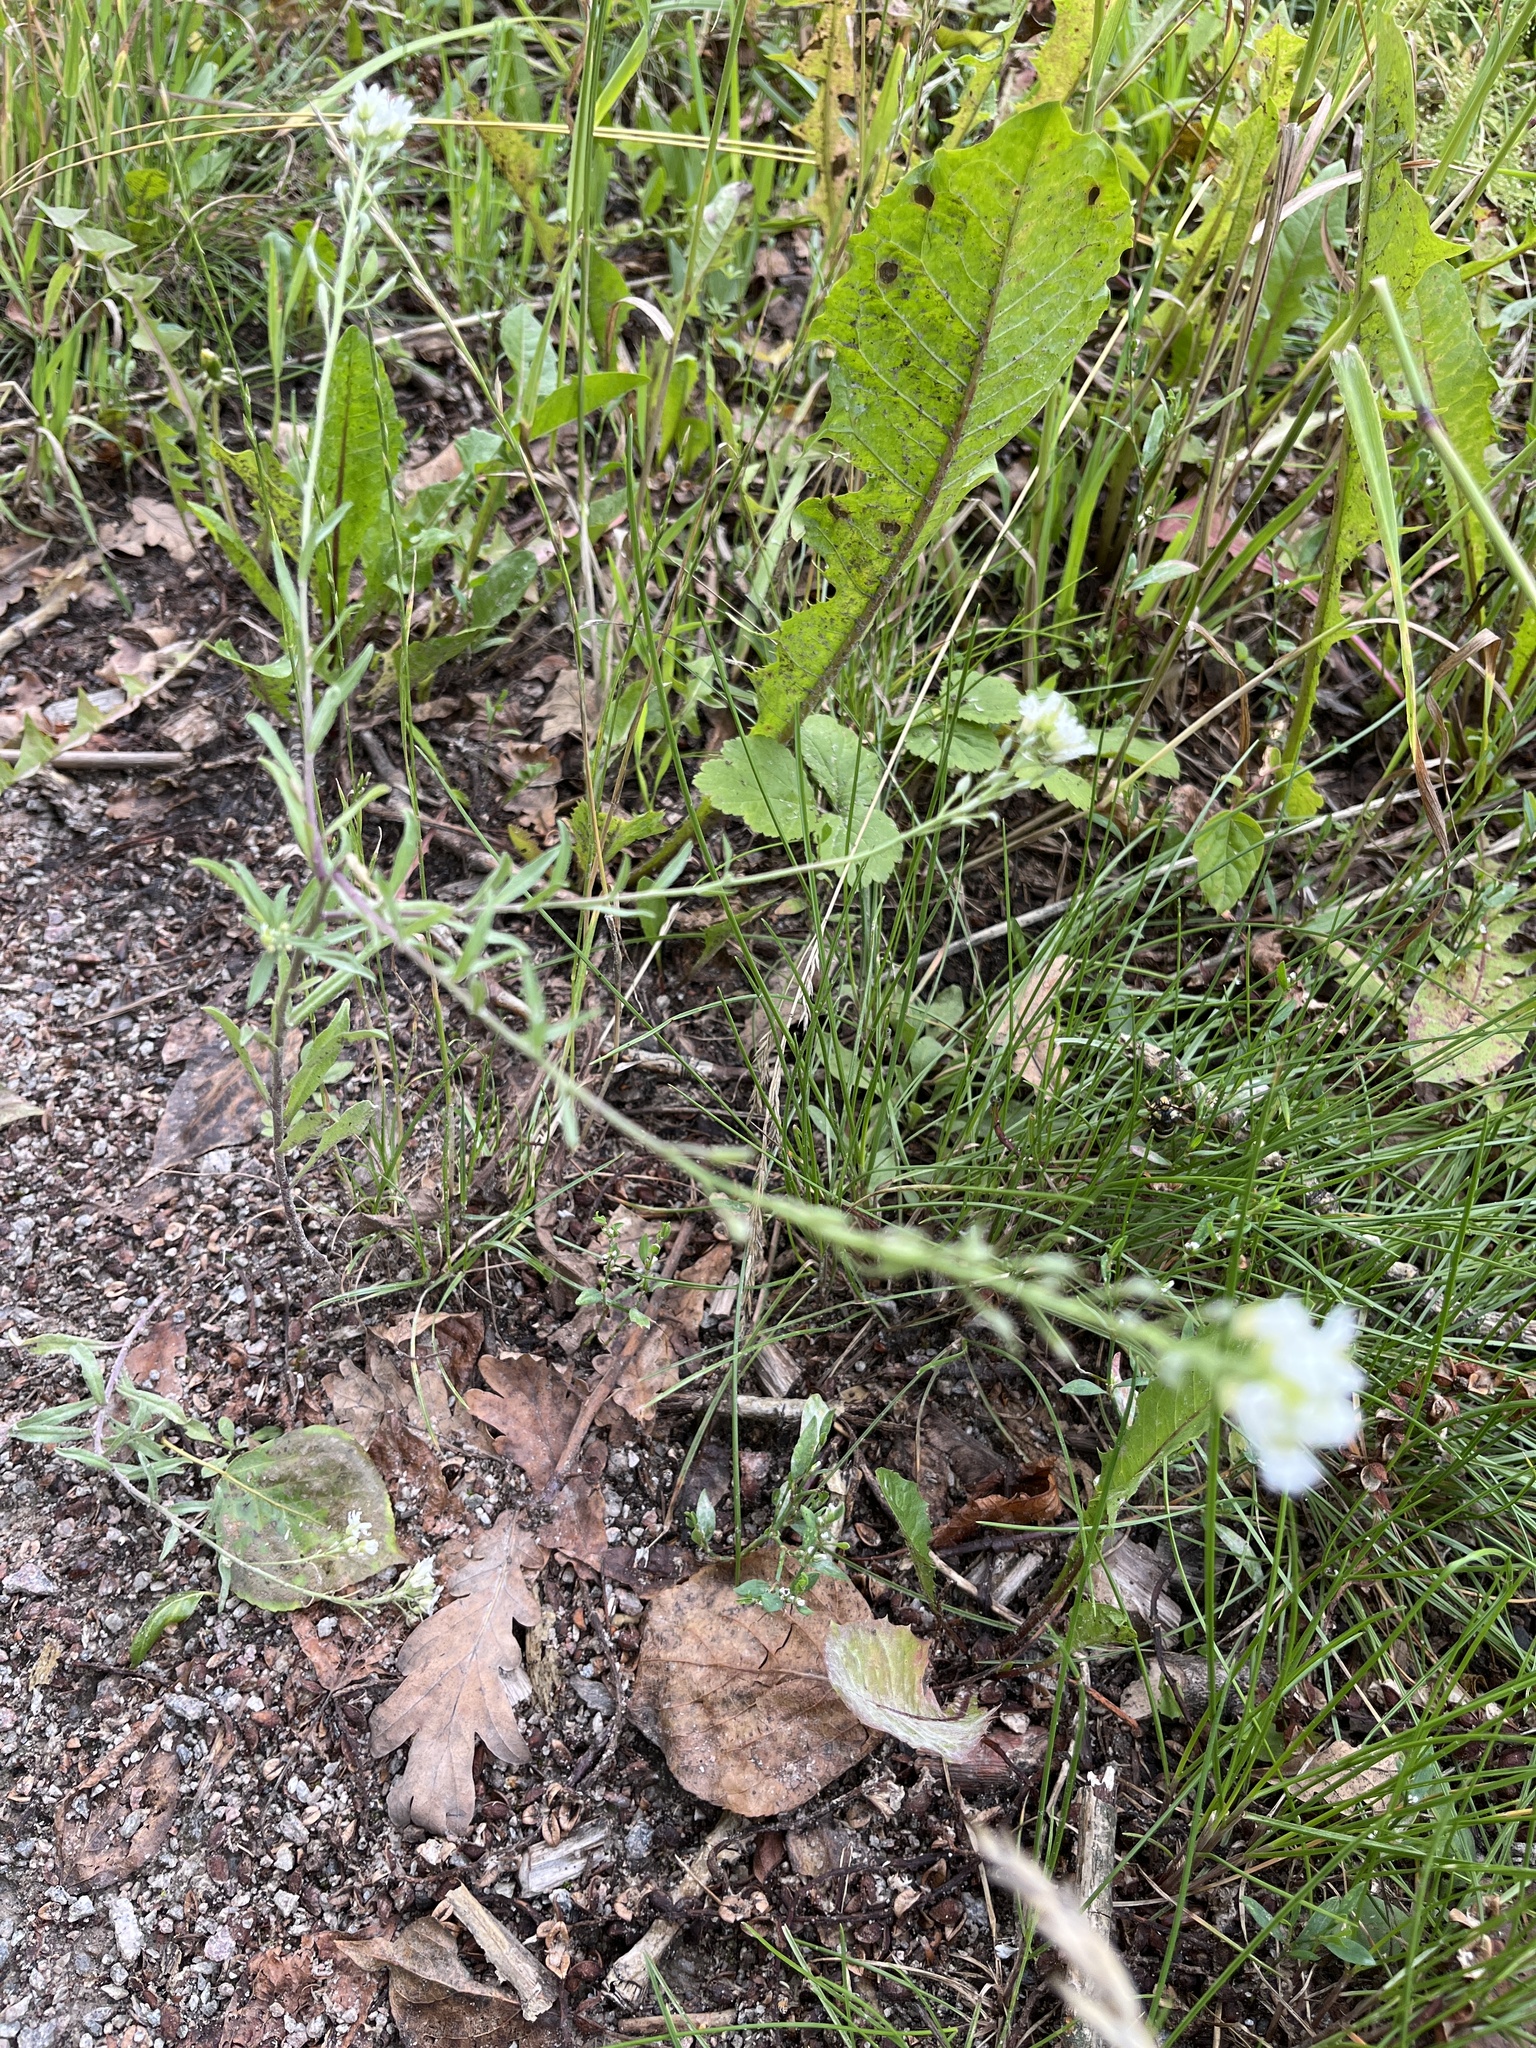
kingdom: Plantae
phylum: Tracheophyta
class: Magnoliopsida
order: Brassicales
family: Brassicaceae
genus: Berteroa
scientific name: Berteroa incana
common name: Hoary alison
